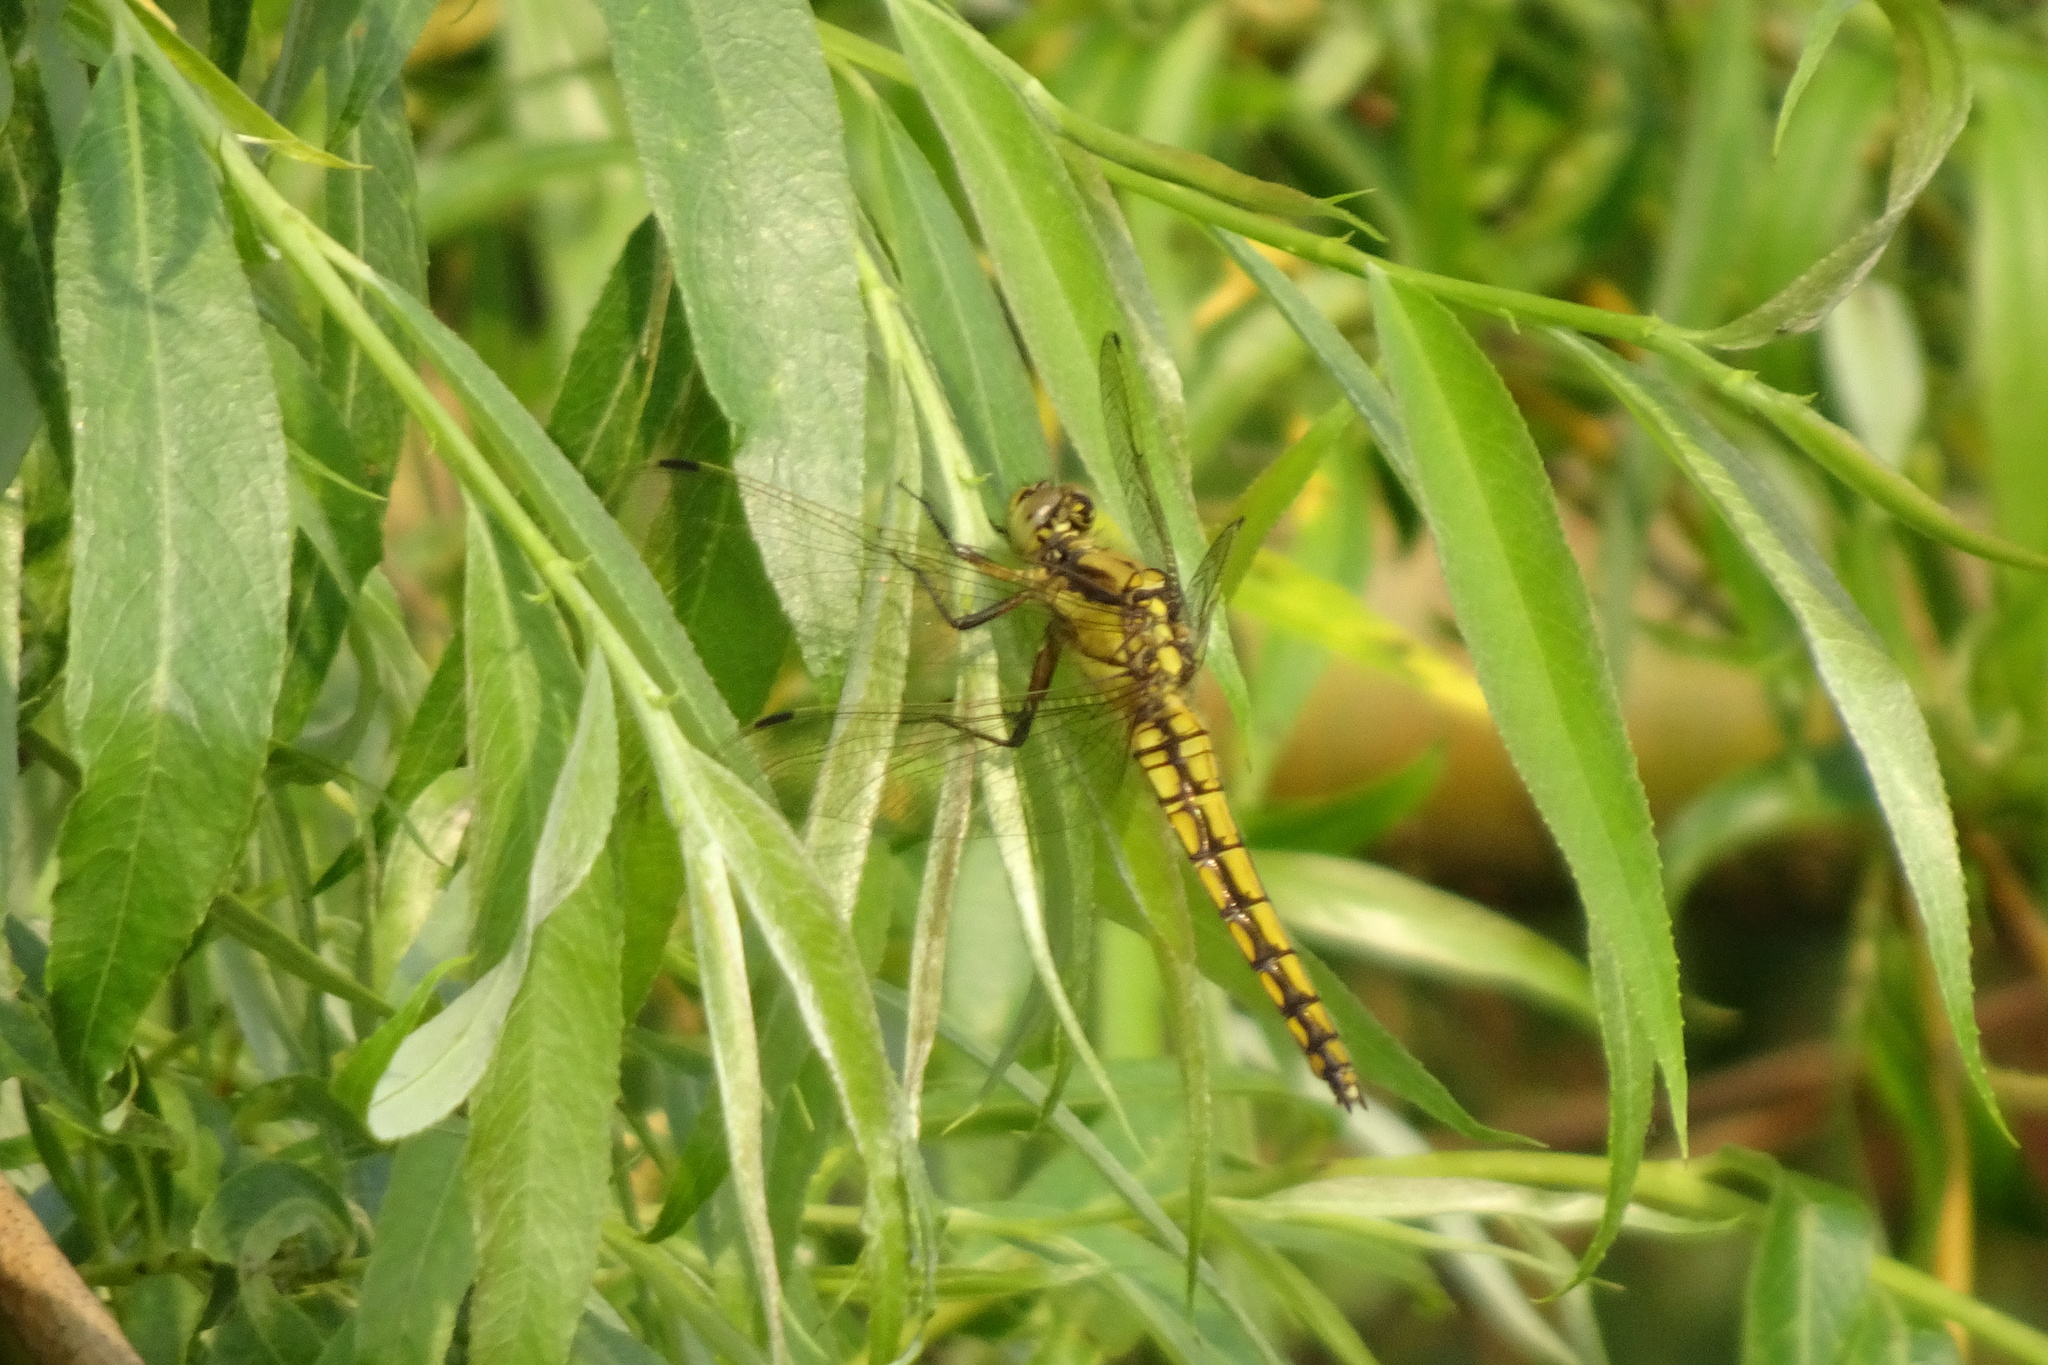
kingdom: Animalia
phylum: Arthropoda
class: Insecta
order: Odonata
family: Libellulidae
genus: Orthetrum
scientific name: Orthetrum cancellatum
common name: Black-tailed skimmer
